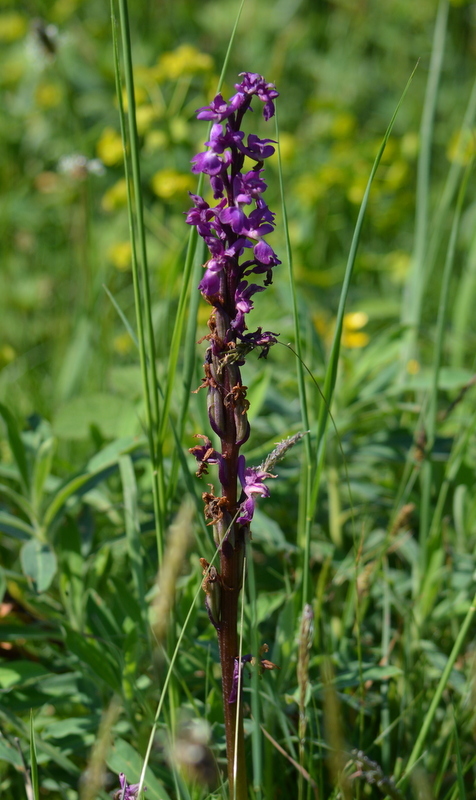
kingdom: Plantae
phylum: Tracheophyta
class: Liliopsida
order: Asparagales
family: Orchidaceae
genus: Orchis
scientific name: Orchis mascula
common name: Early-purple orchid
